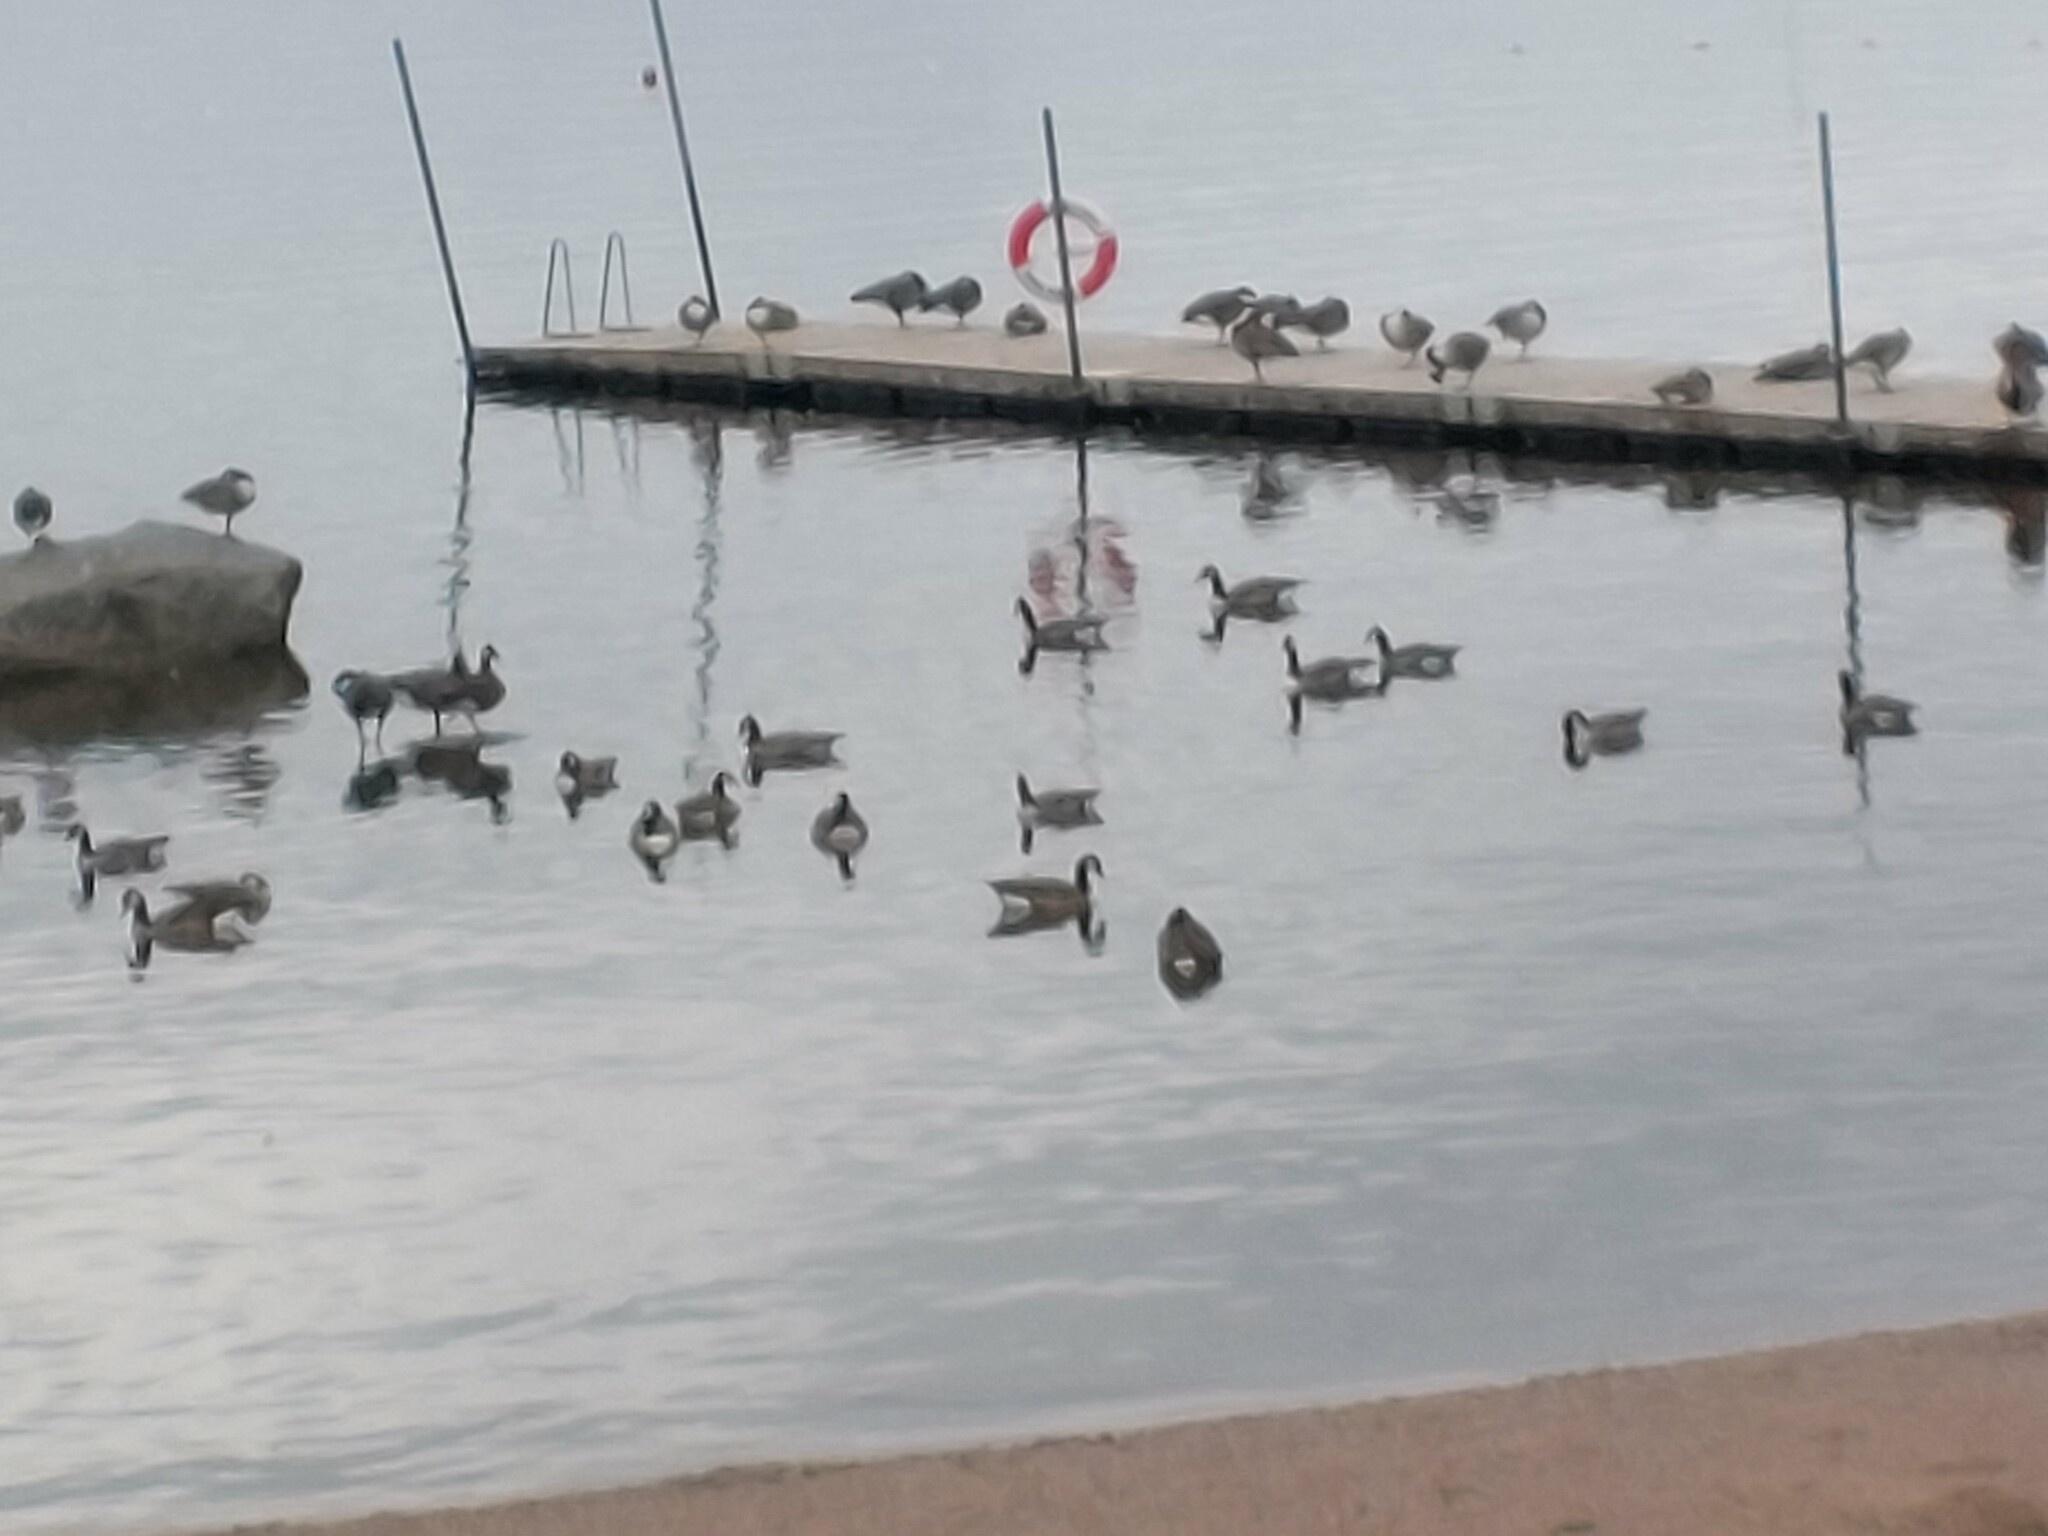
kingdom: Animalia
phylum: Chordata
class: Aves
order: Anseriformes
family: Anatidae
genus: Branta
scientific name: Branta canadensis
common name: Canada goose
